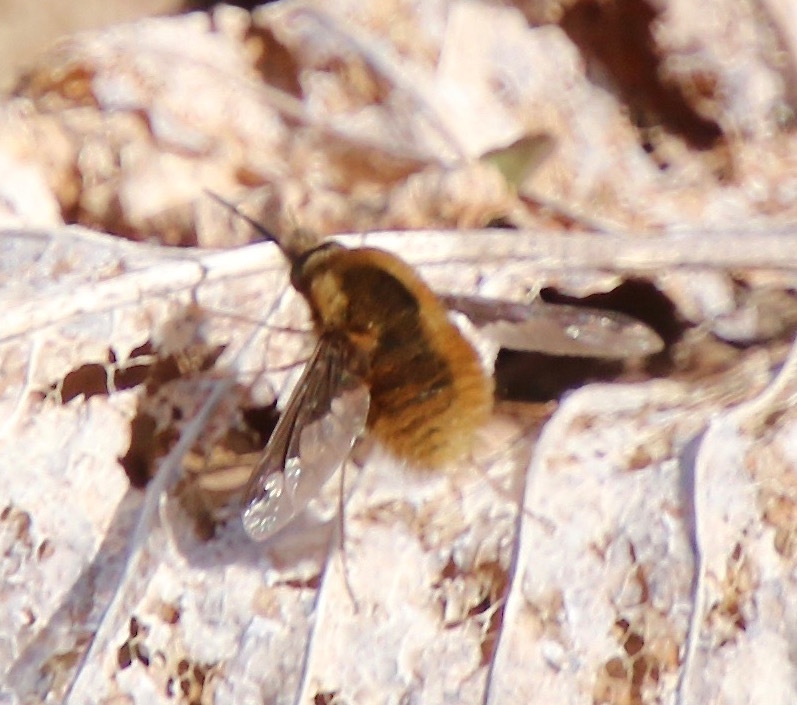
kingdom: Animalia
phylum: Arthropoda
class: Insecta
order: Diptera
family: Bombyliidae
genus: Bombylius
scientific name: Bombylius major
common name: Bee fly
